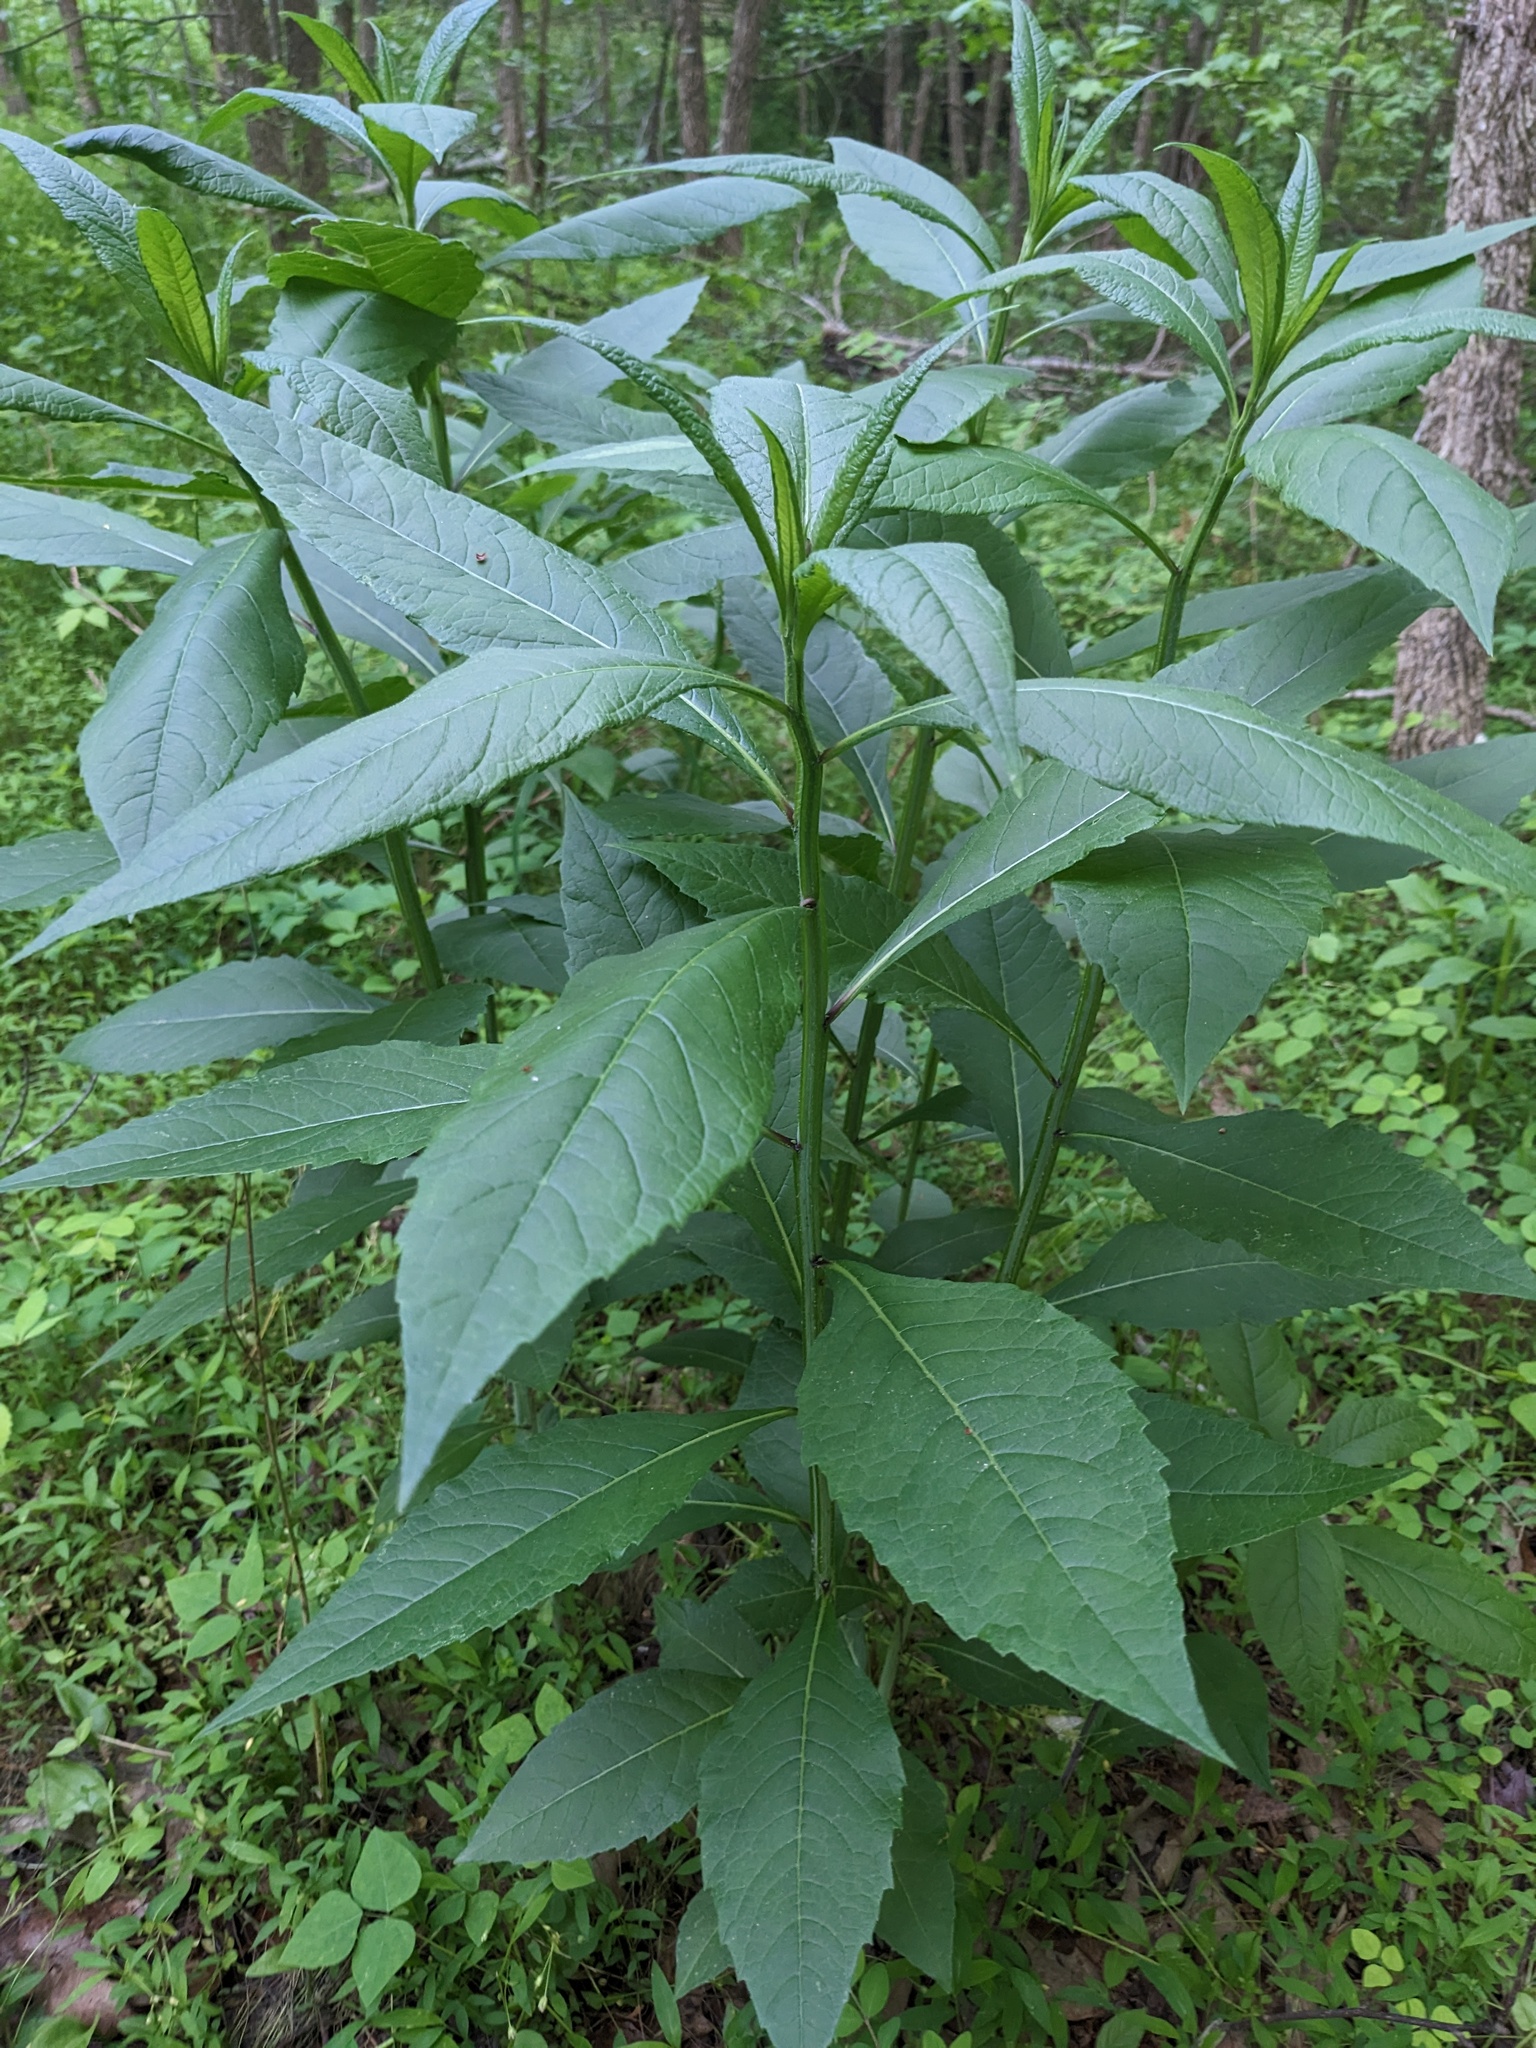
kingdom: Plantae
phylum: Tracheophyta
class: Magnoliopsida
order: Asterales
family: Asteraceae
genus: Verbesina
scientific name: Verbesina alternifolia
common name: Wingstem
